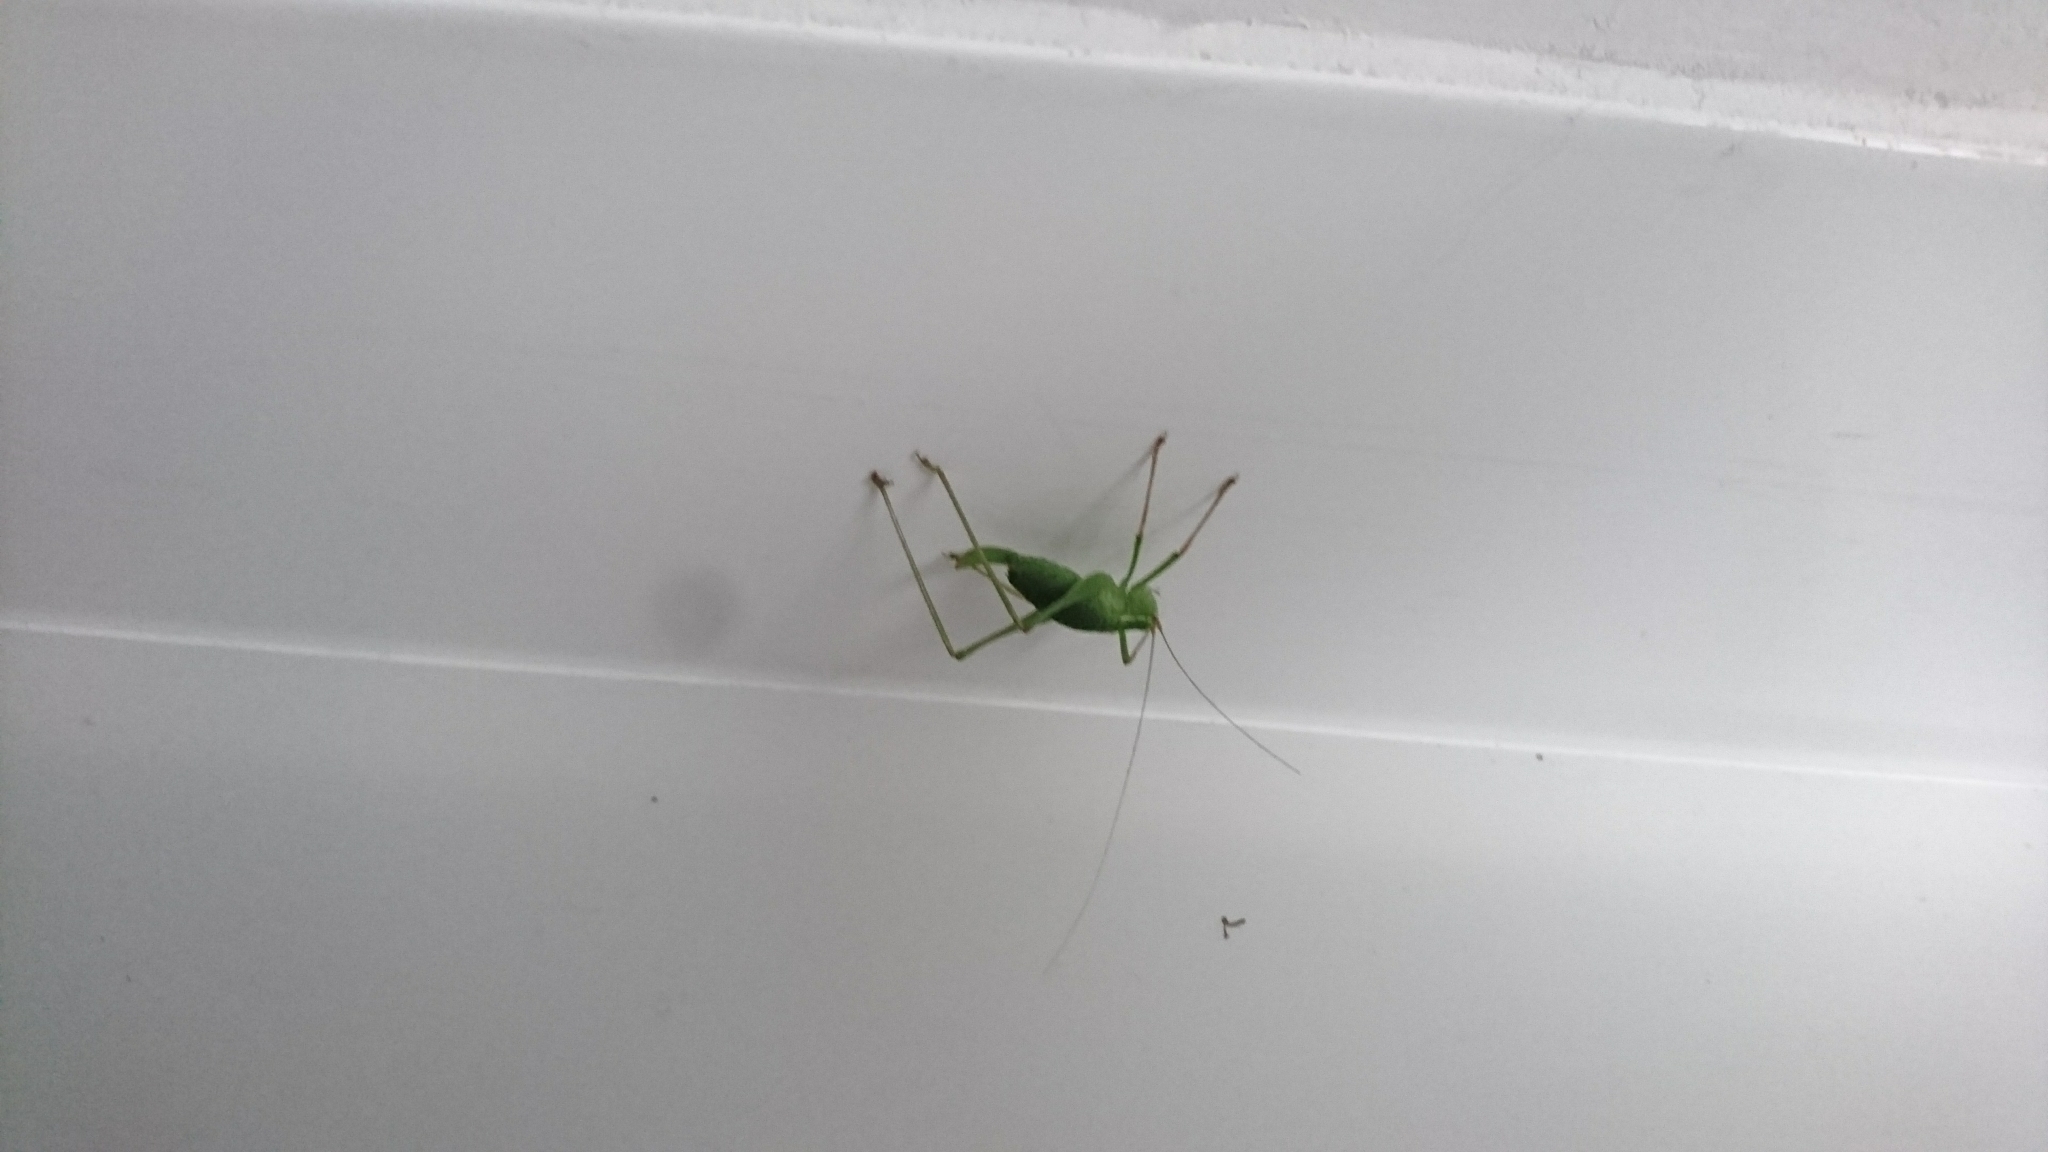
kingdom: Animalia
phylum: Arthropoda
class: Insecta
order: Orthoptera
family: Tettigoniidae
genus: Leptophyes
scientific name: Leptophyes punctatissima
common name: Speckled bush-cricket
